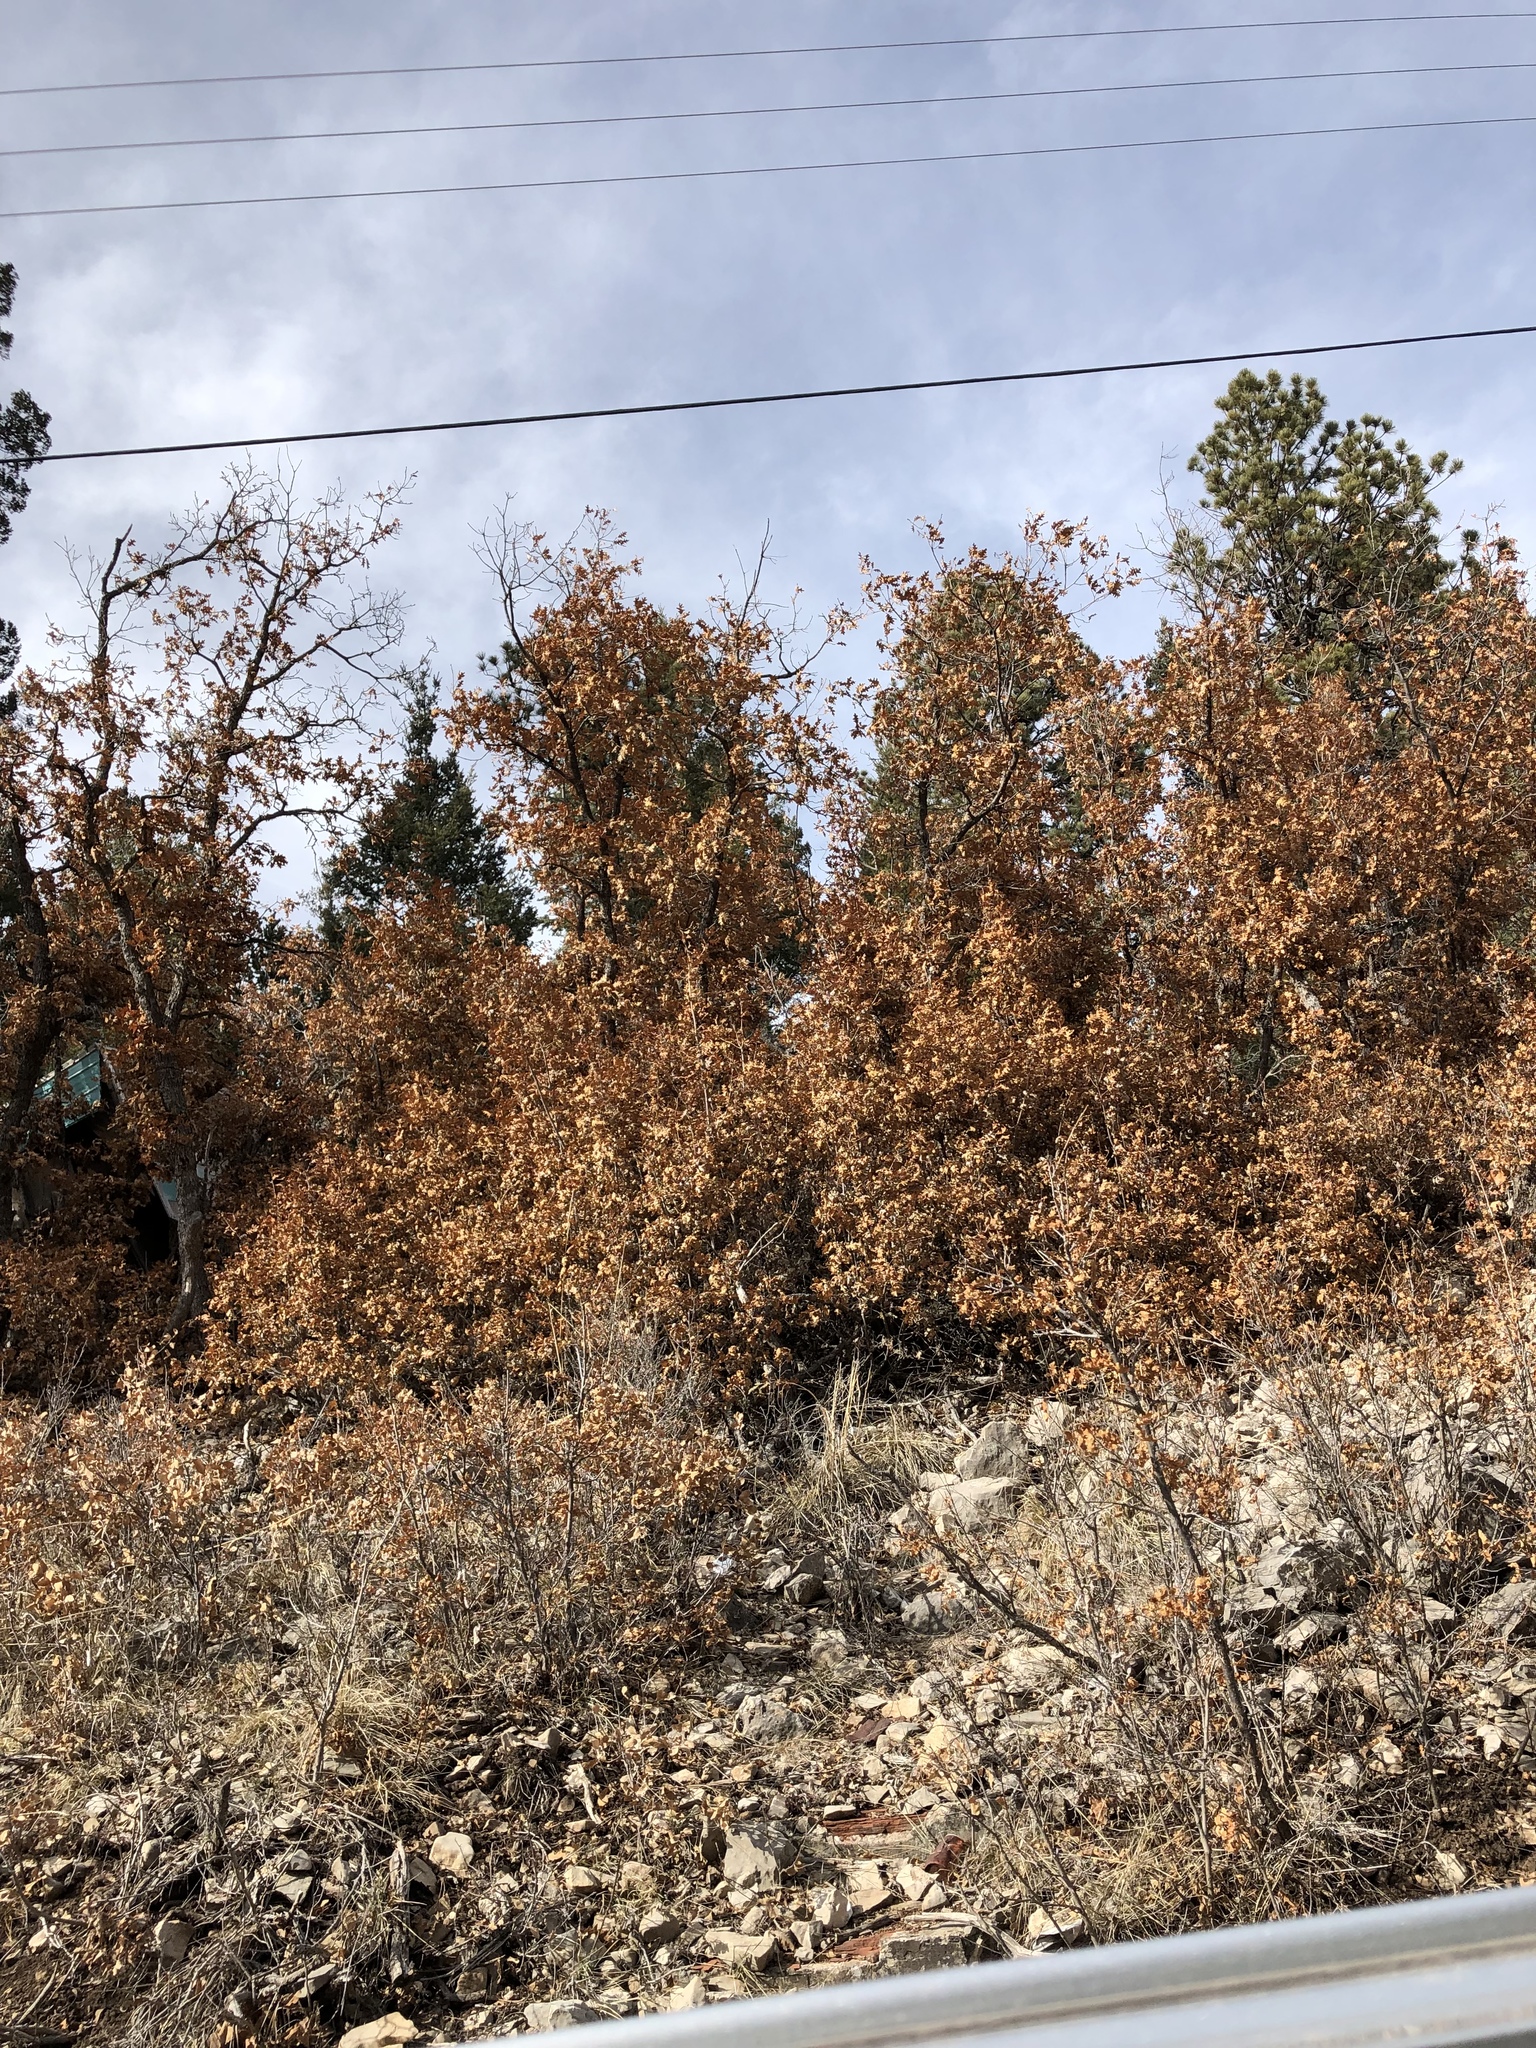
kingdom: Plantae
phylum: Tracheophyta
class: Magnoliopsida
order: Fagales
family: Fagaceae
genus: Quercus
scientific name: Quercus gambelii
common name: Gambel oak
